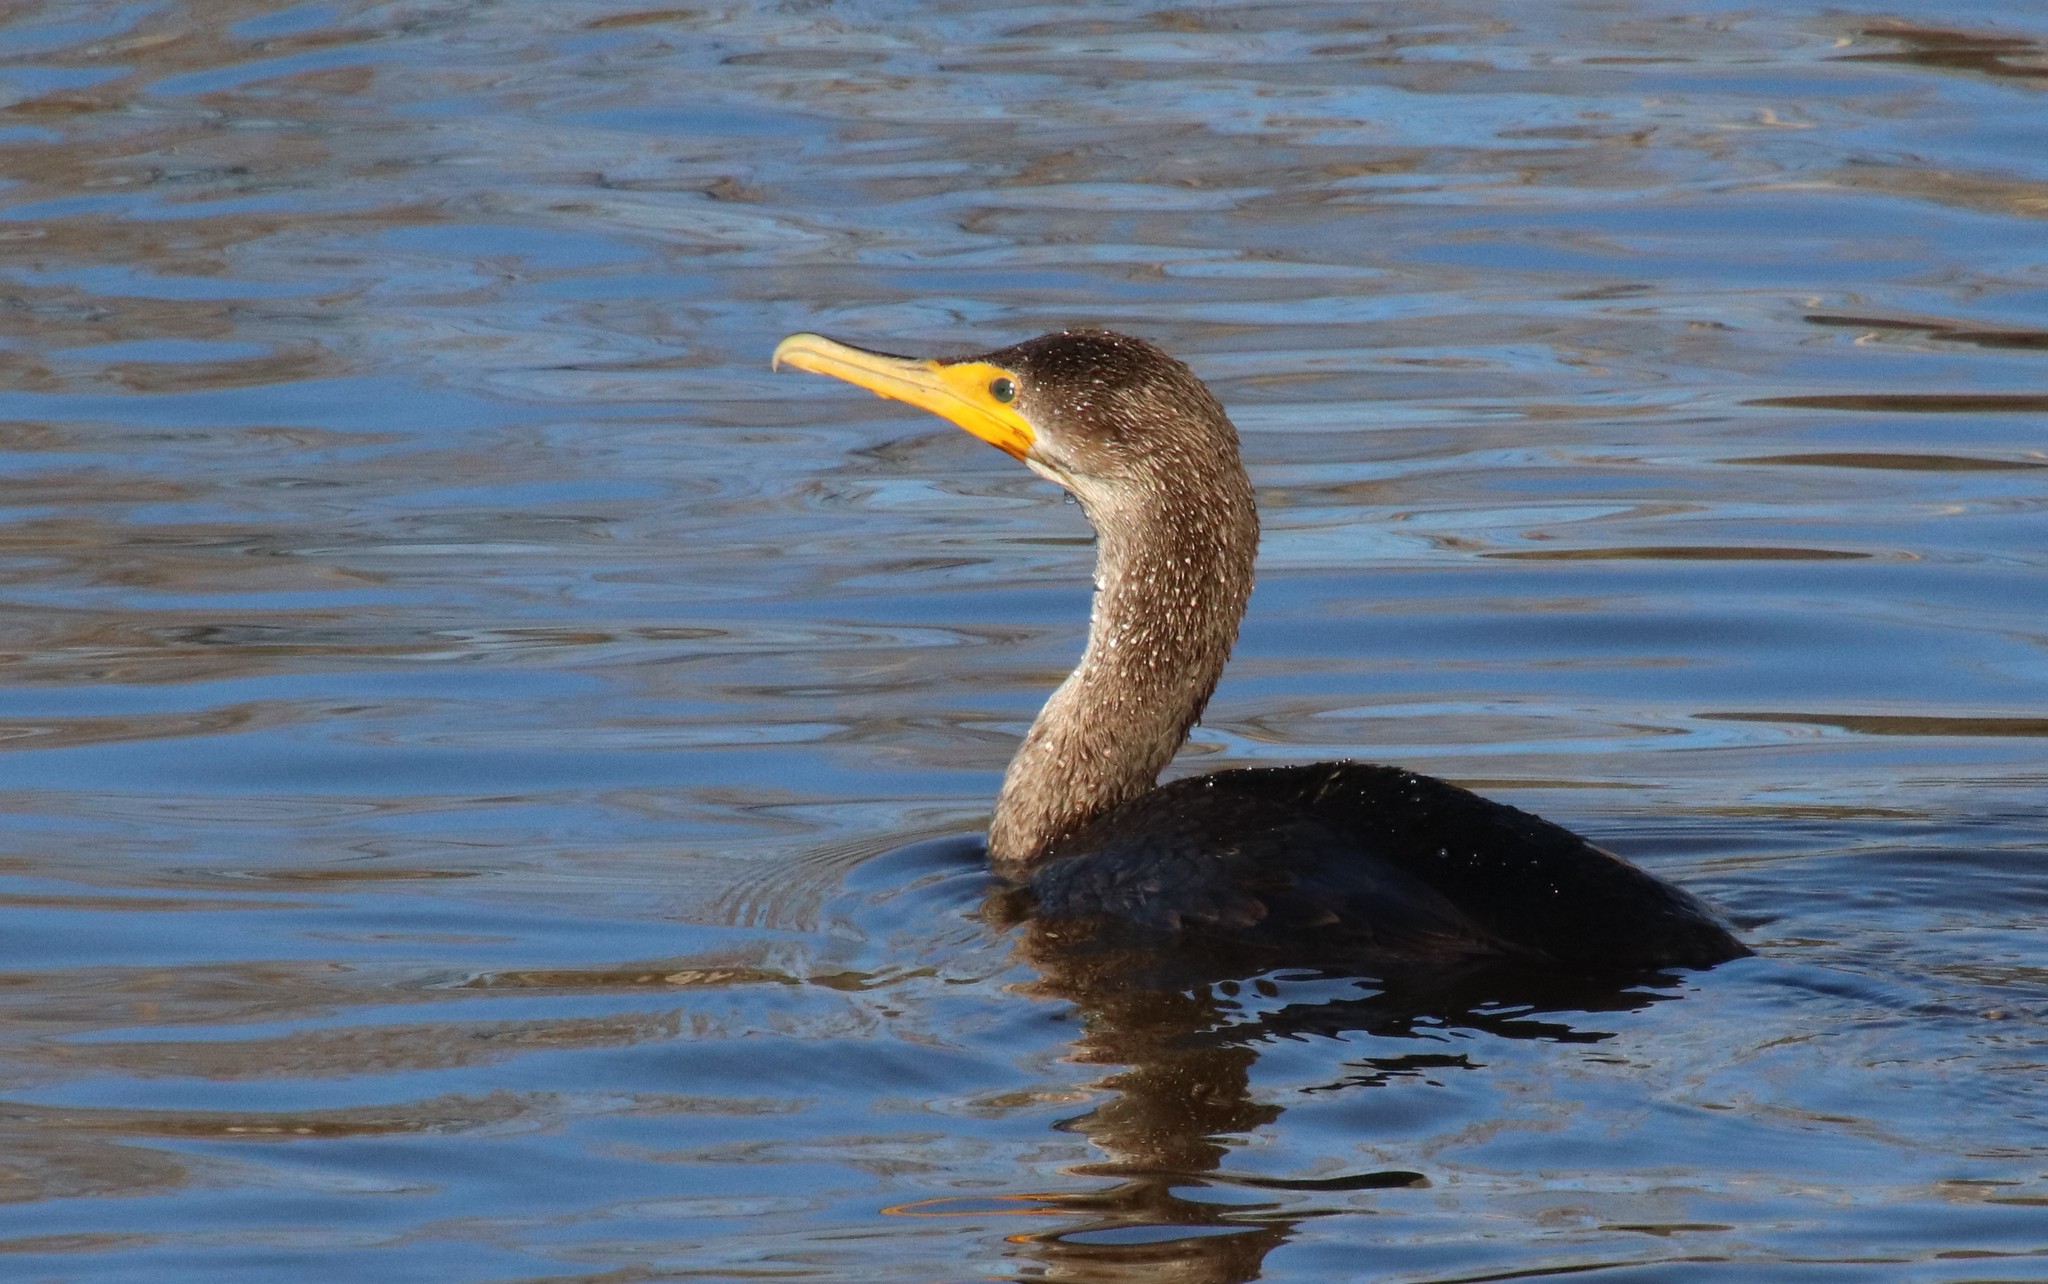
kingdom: Animalia
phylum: Chordata
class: Aves
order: Suliformes
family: Phalacrocoracidae
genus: Phalacrocorax
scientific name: Phalacrocorax auritus
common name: Double-crested cormorant
